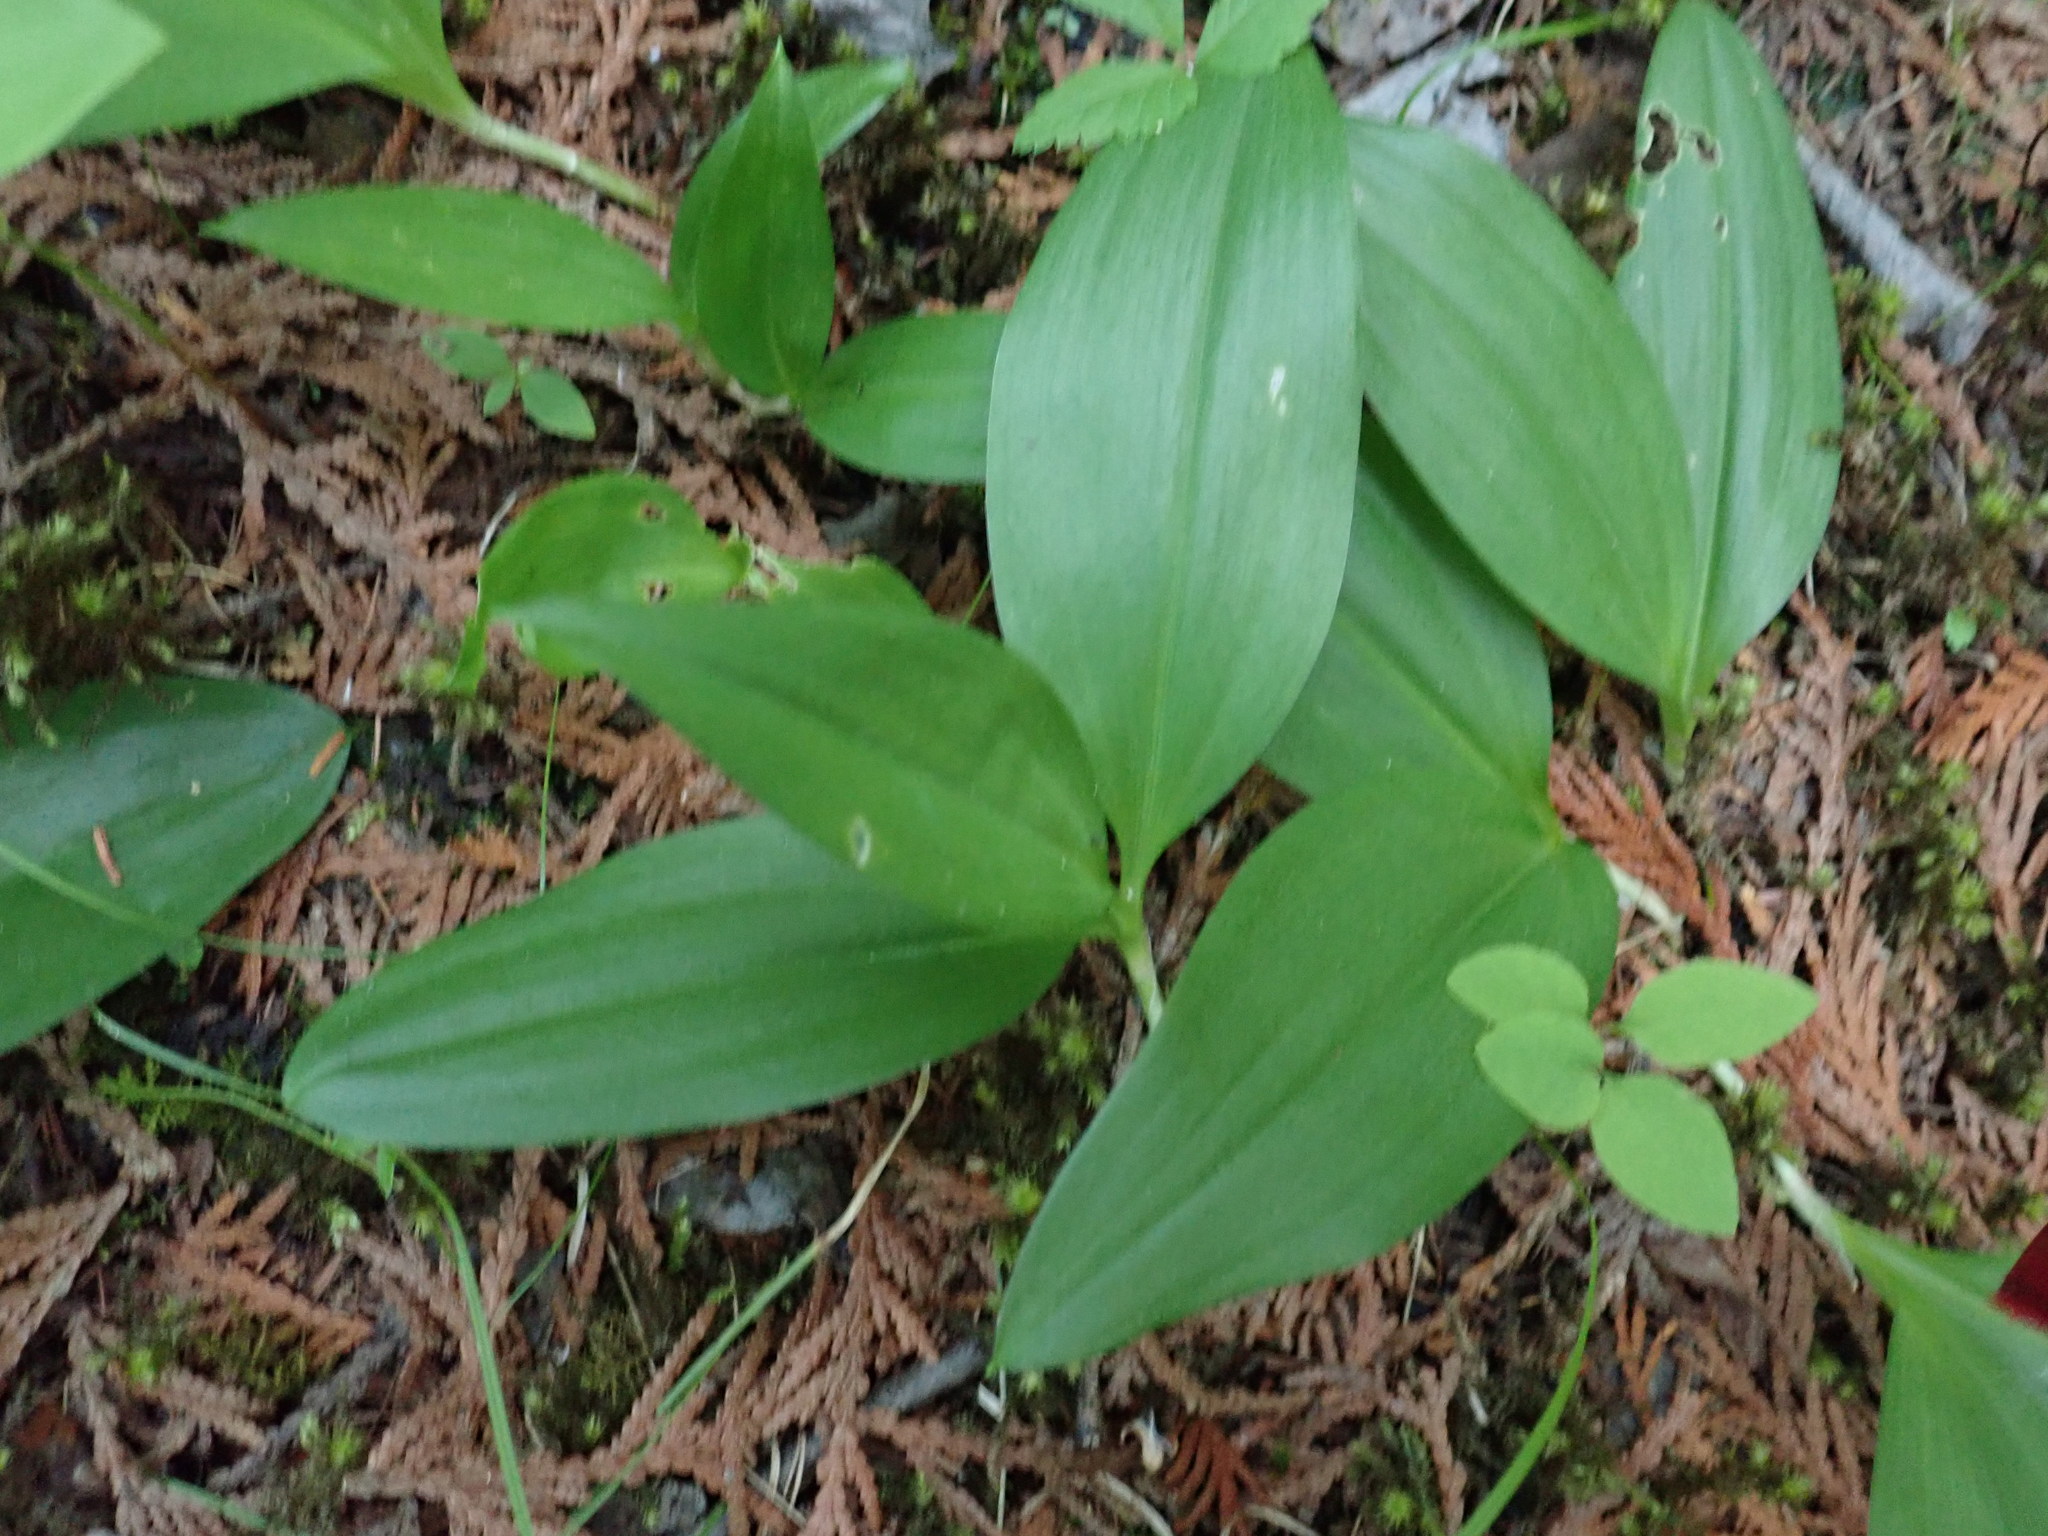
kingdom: Plantae
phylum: Tracheophyta
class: Liliopsida
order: Asparagales
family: Asparagaceae
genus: Maianthemum
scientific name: Maianthemum trifolium
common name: Swamp false solomon's seal
